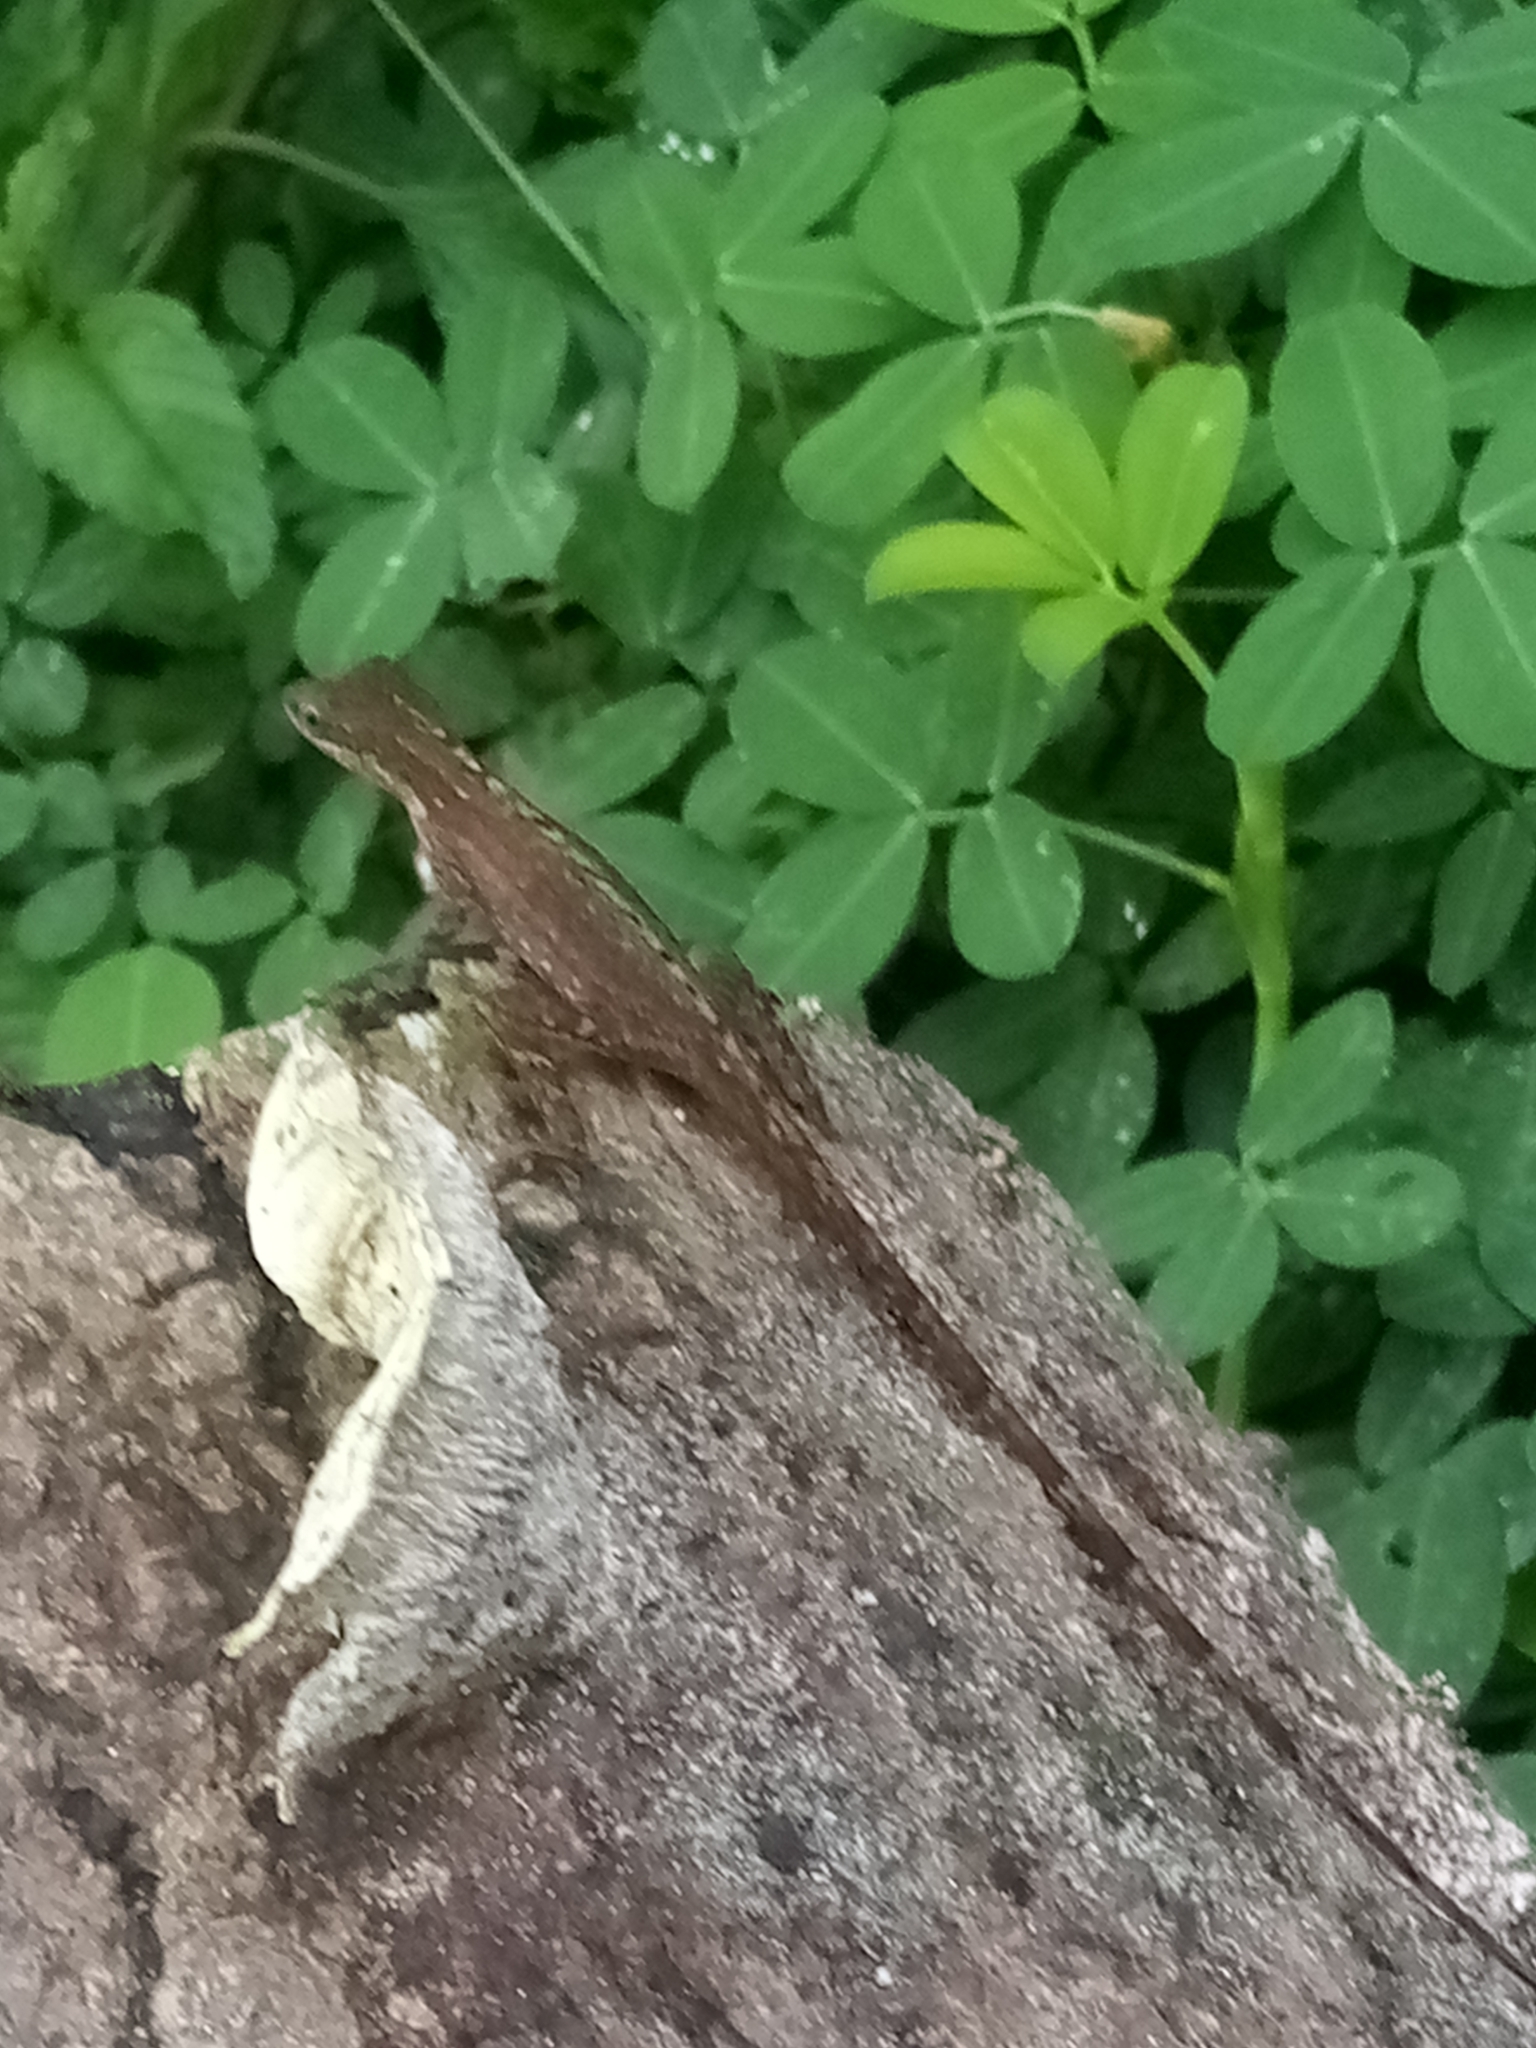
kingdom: Animalia
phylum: Chordata
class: Squamata
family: Dactyloidae
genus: Anolis
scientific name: Anolis limifrons
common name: Border anole
